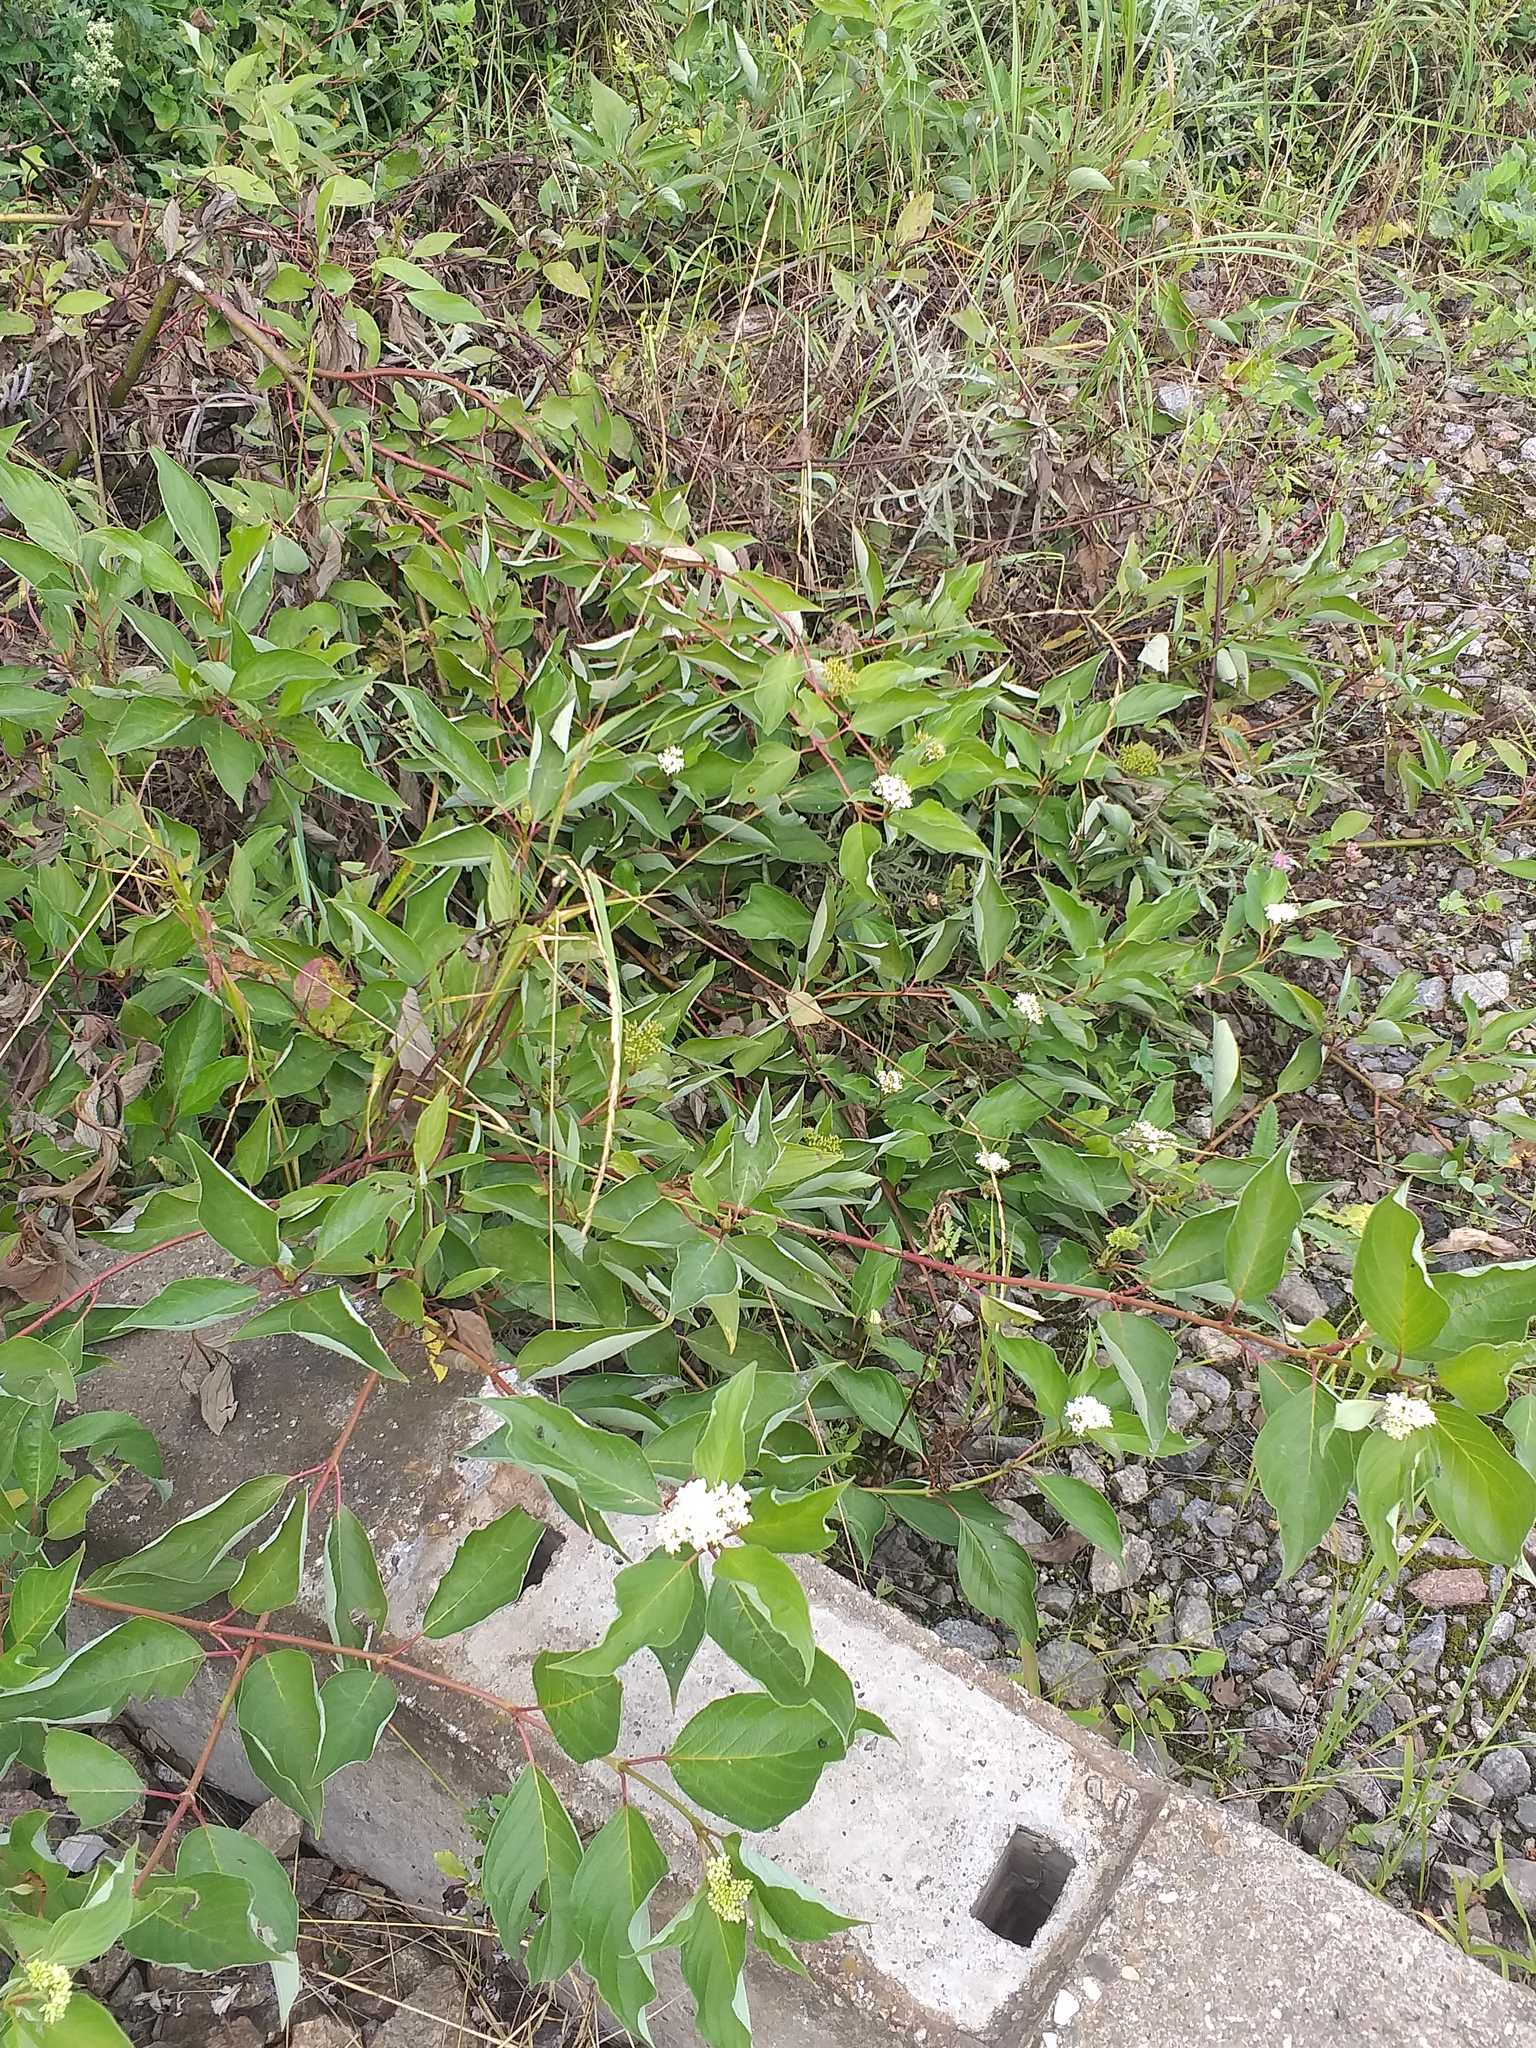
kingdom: Plantae
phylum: Tracheophyta
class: Magnoliopsida
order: Cornales
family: Cornaceae
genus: Cornus
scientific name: Cornus alba
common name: White dogwood
